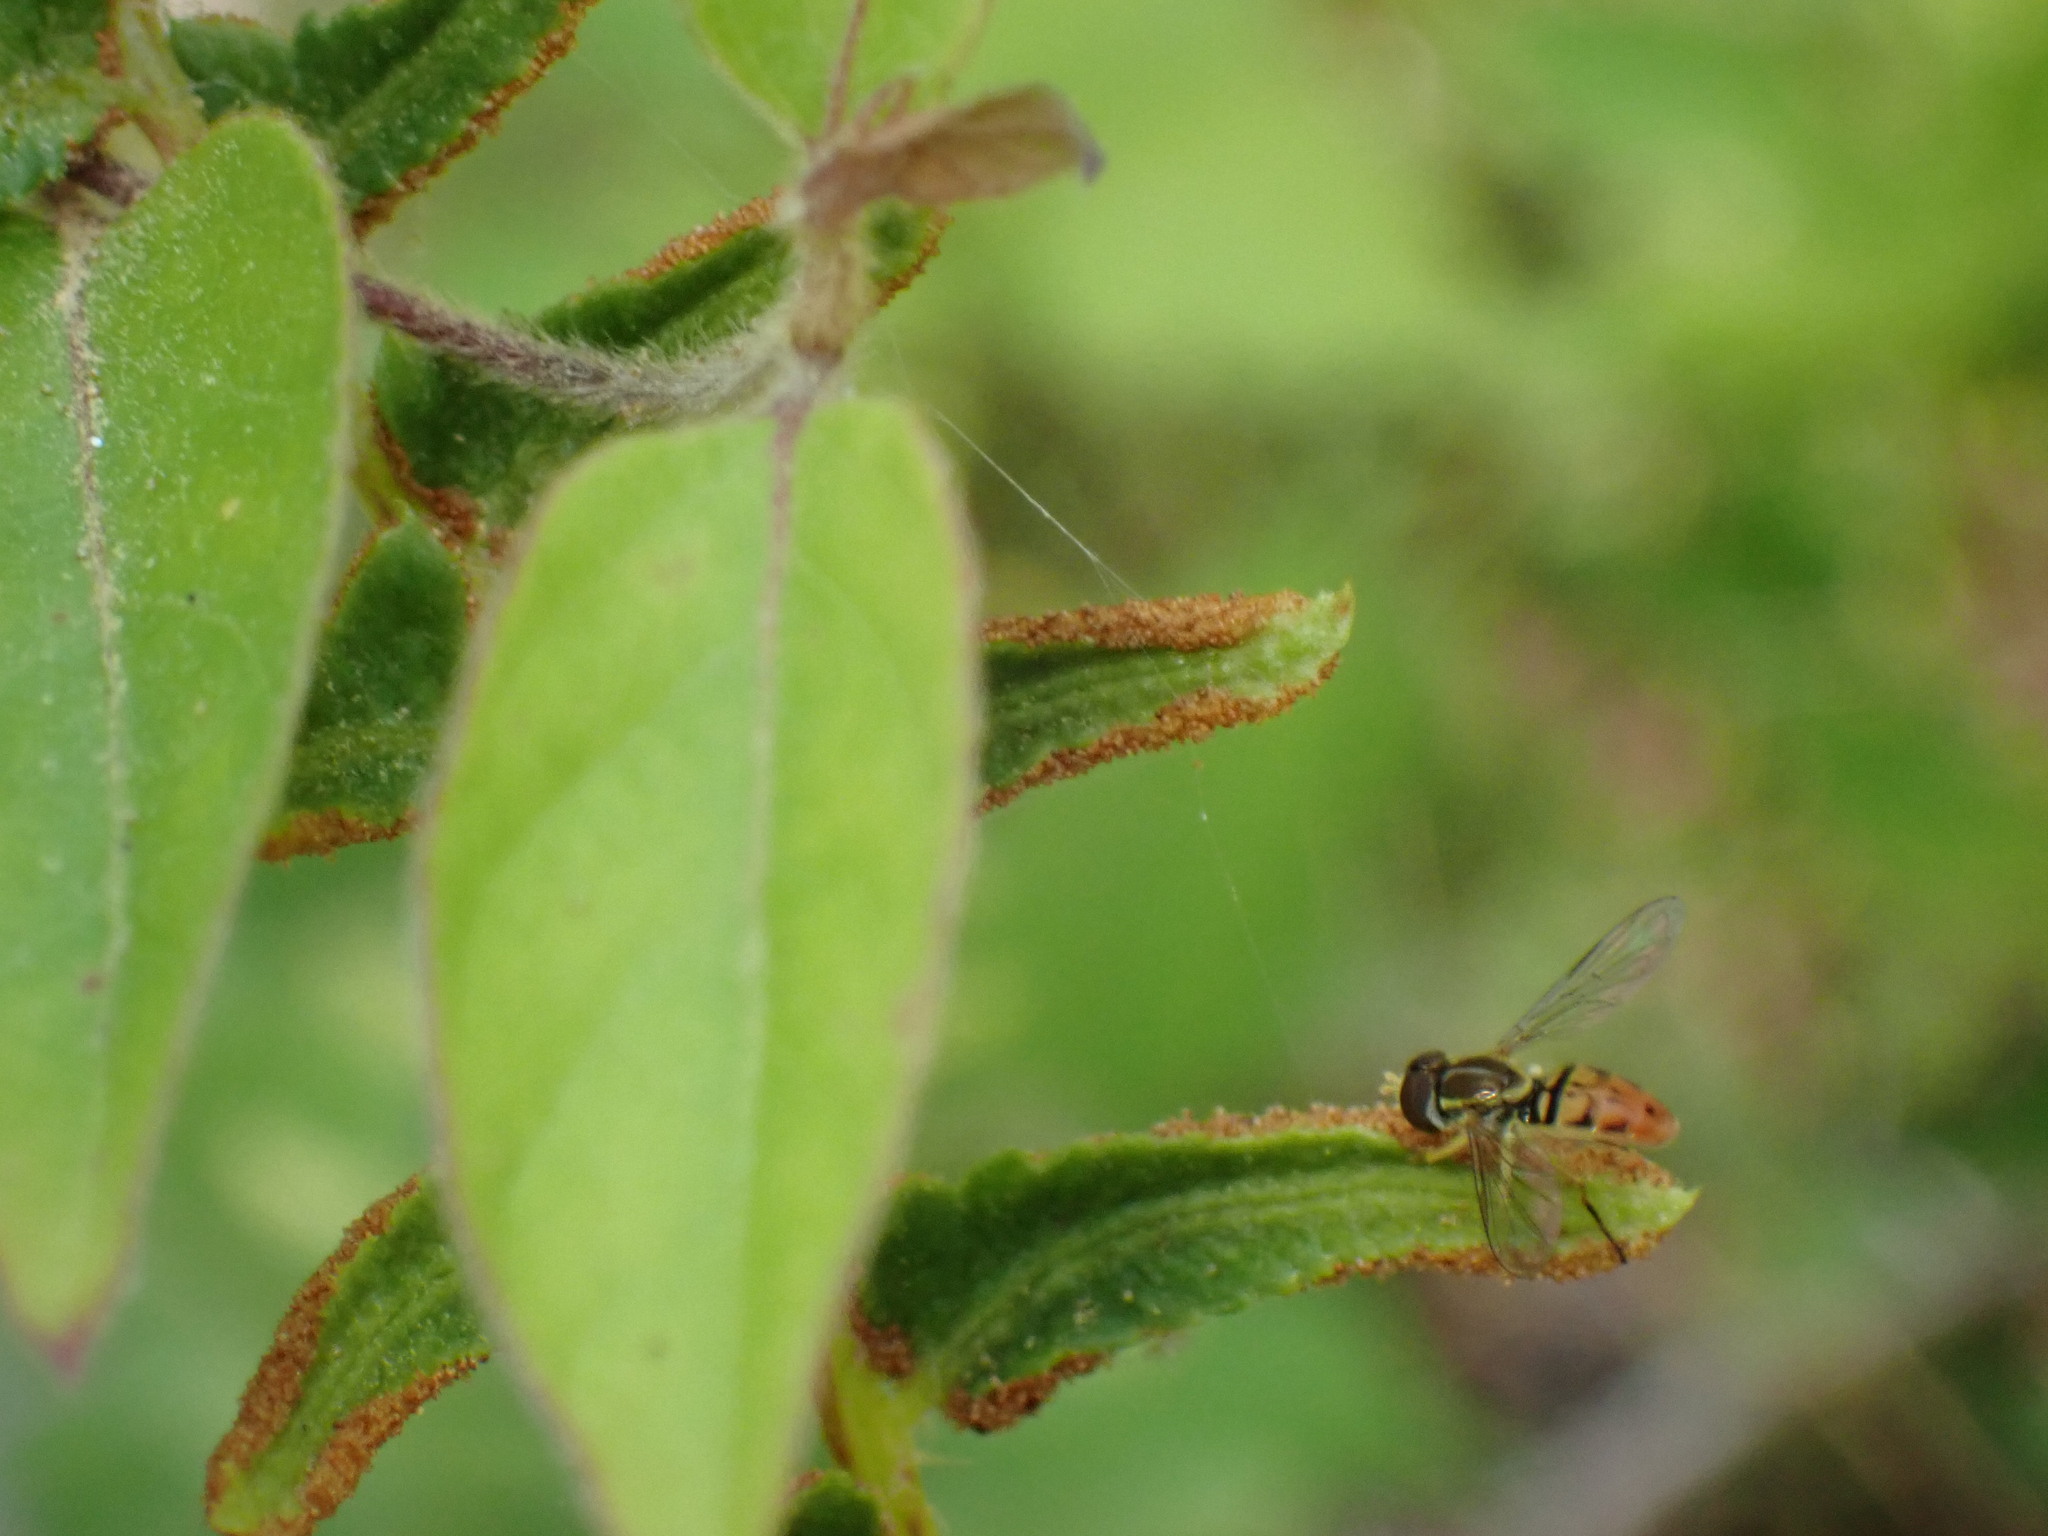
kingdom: Animalia
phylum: Arthropoda
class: Insecta
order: Diptera
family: Syrphidae
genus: Toxomerus
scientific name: Toxomerus marginatus
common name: Syrphid fly
